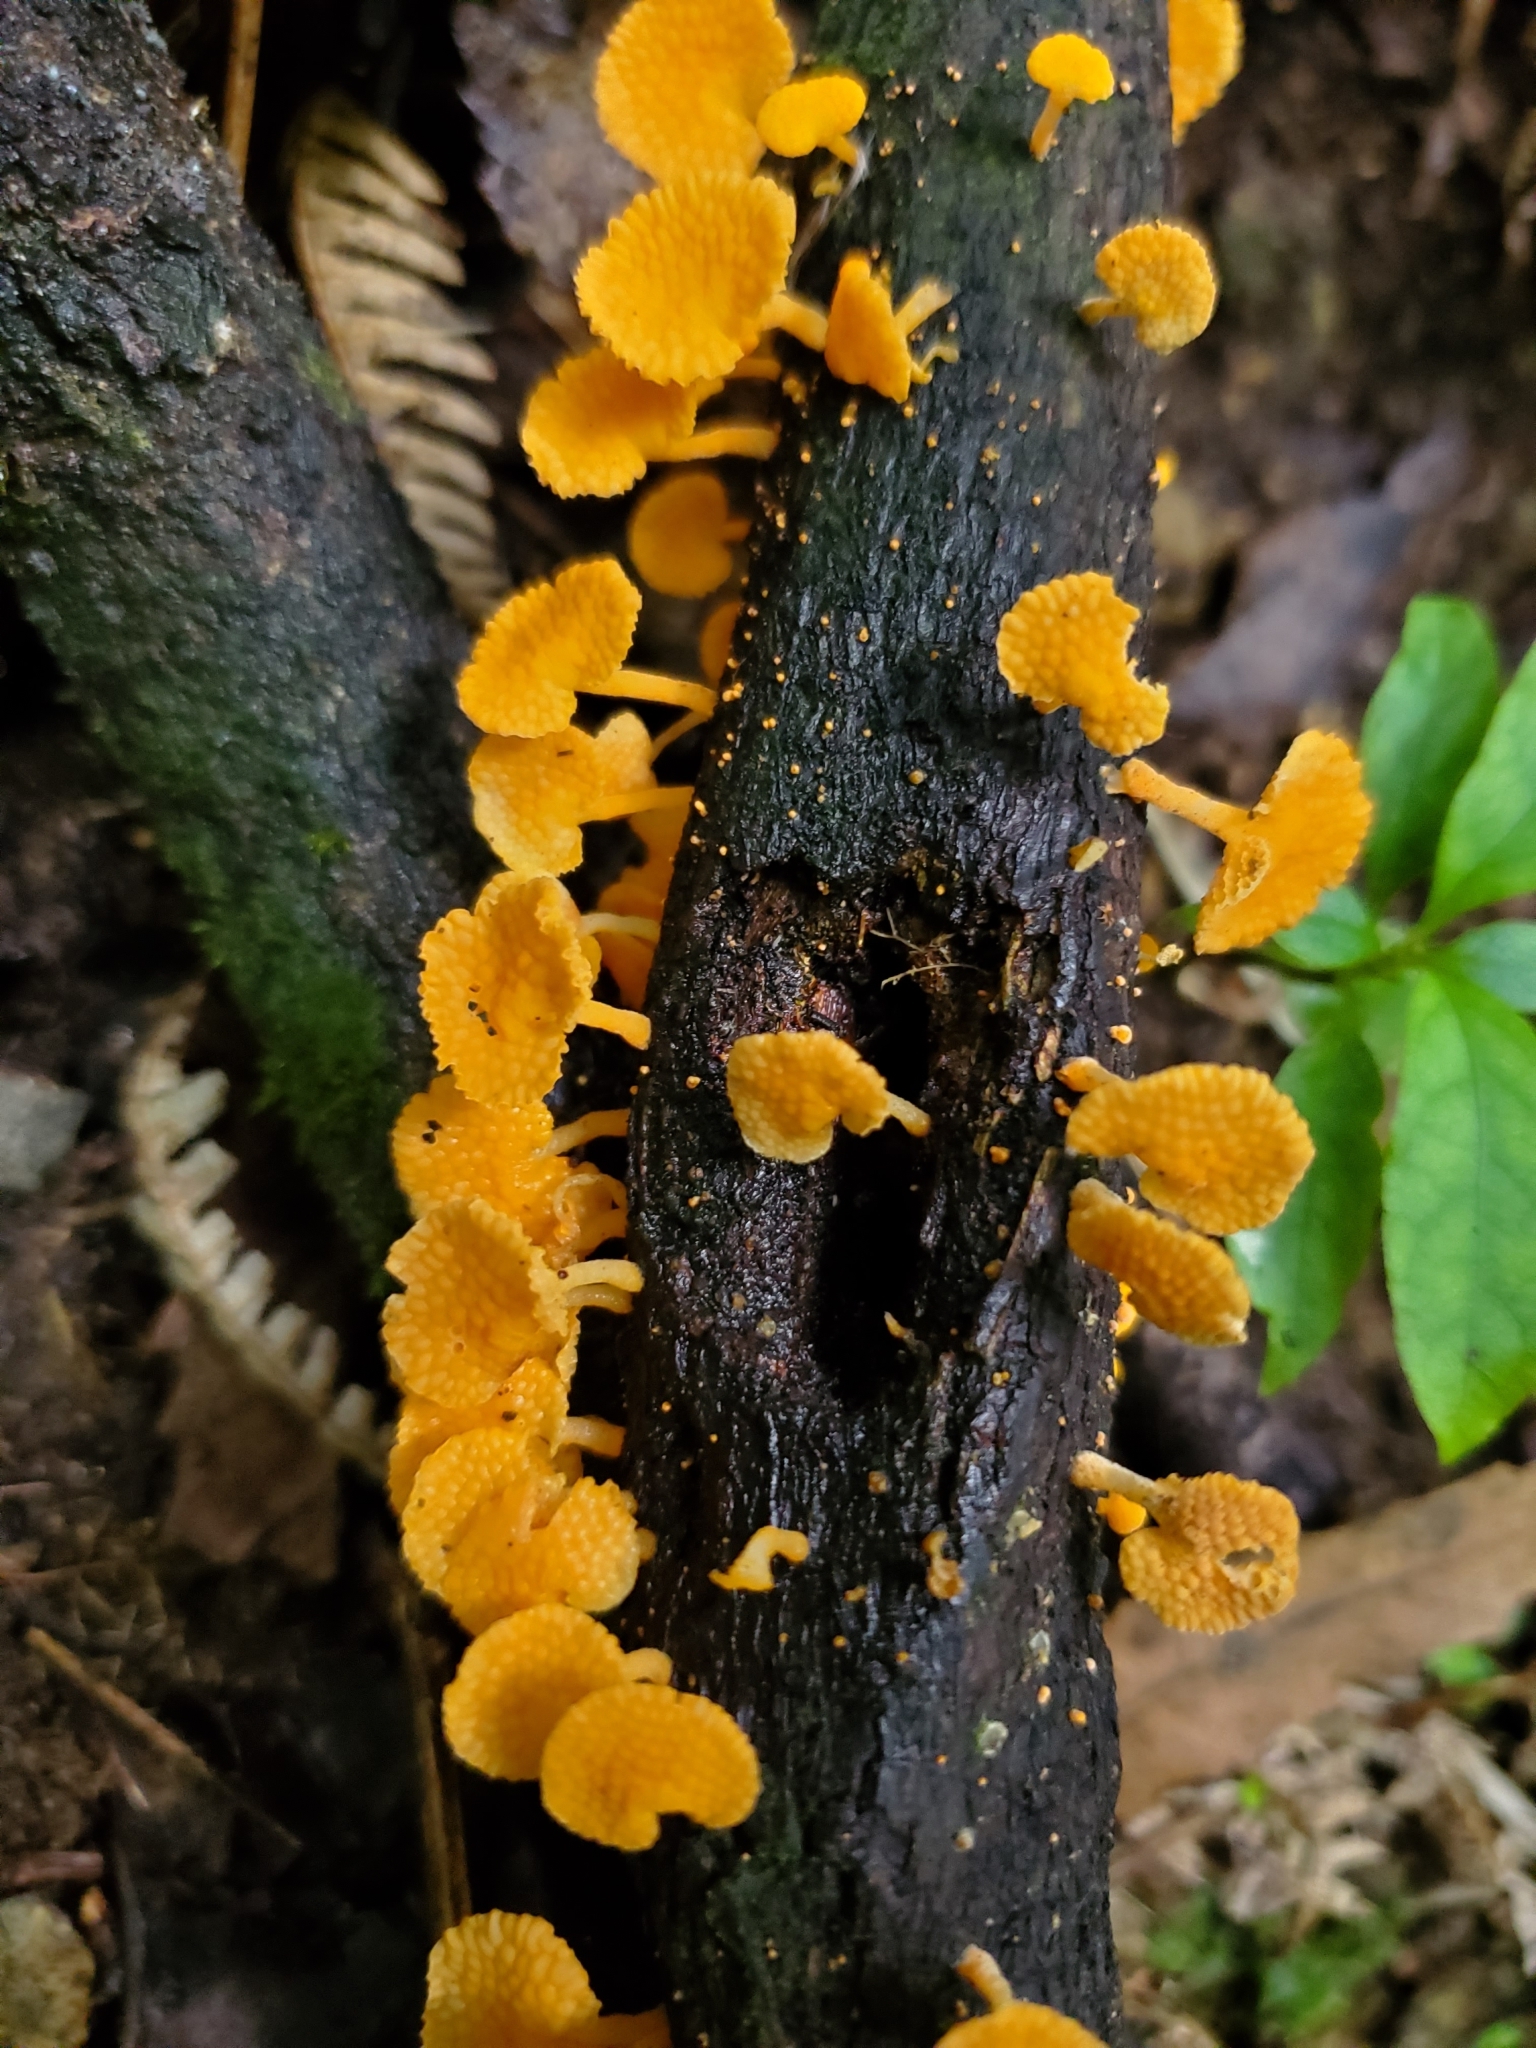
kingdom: Fungi
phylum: Basidiomycota
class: Agaricomycetes
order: Agaricales
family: Mycenaceae
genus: Favolaschia
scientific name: Favolaschia claudopus
